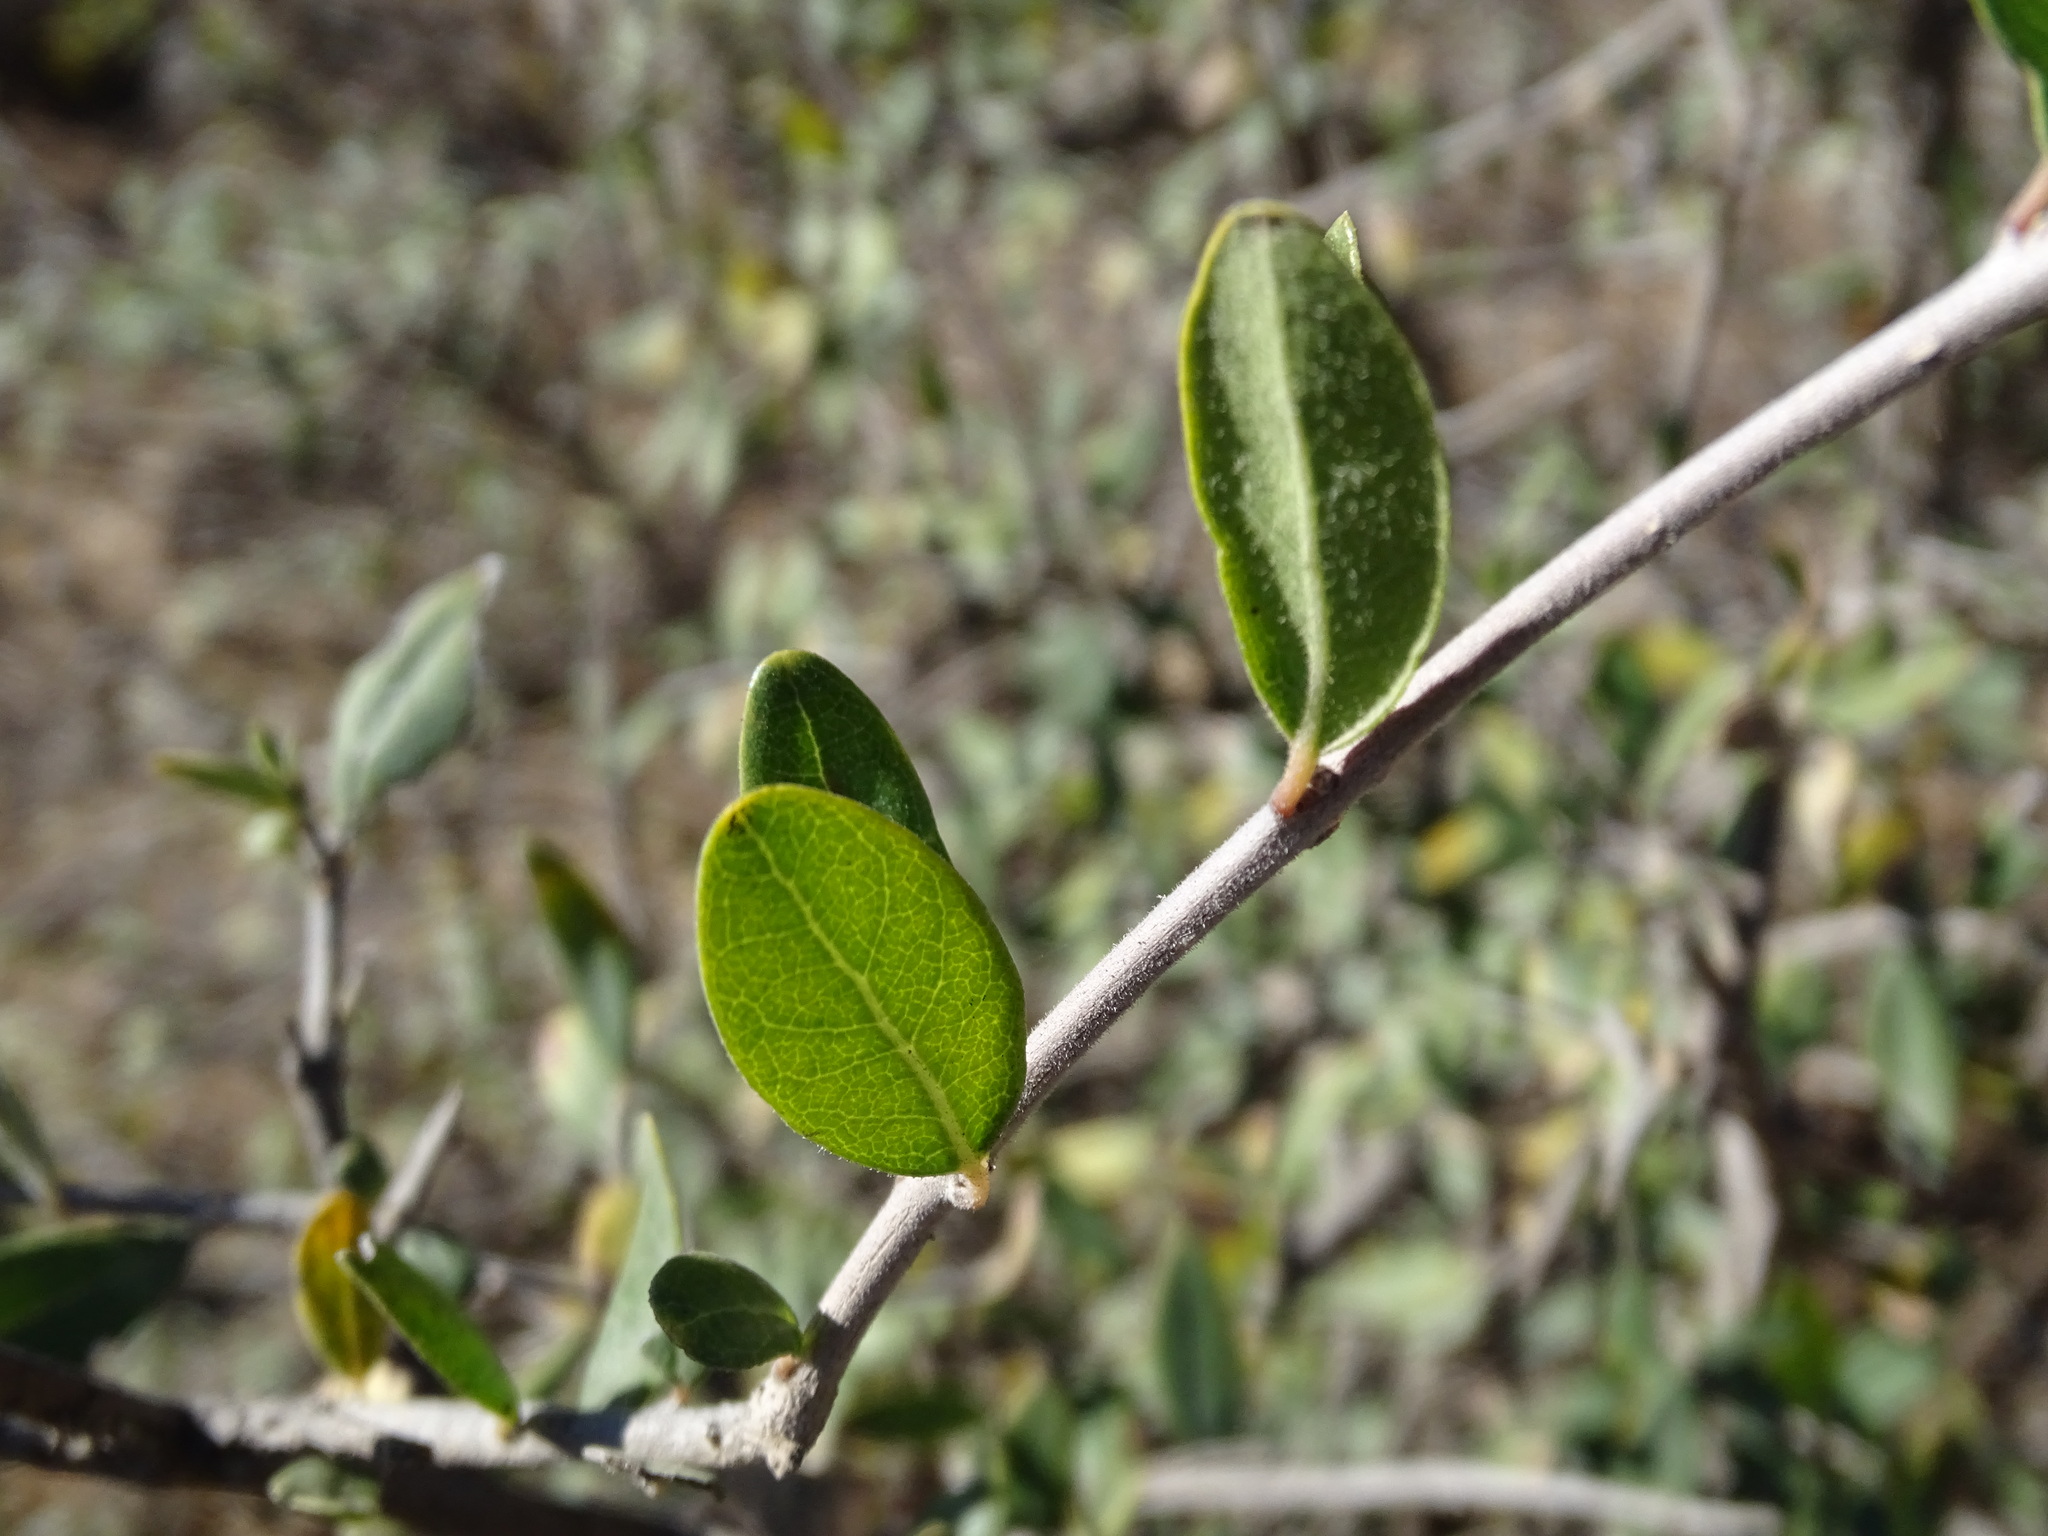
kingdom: Plantae
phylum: Tracheophyta
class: Magnoliopsida
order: Lamiales
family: Oleaceae
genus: Forestiera
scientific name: Forestiera durangensis
